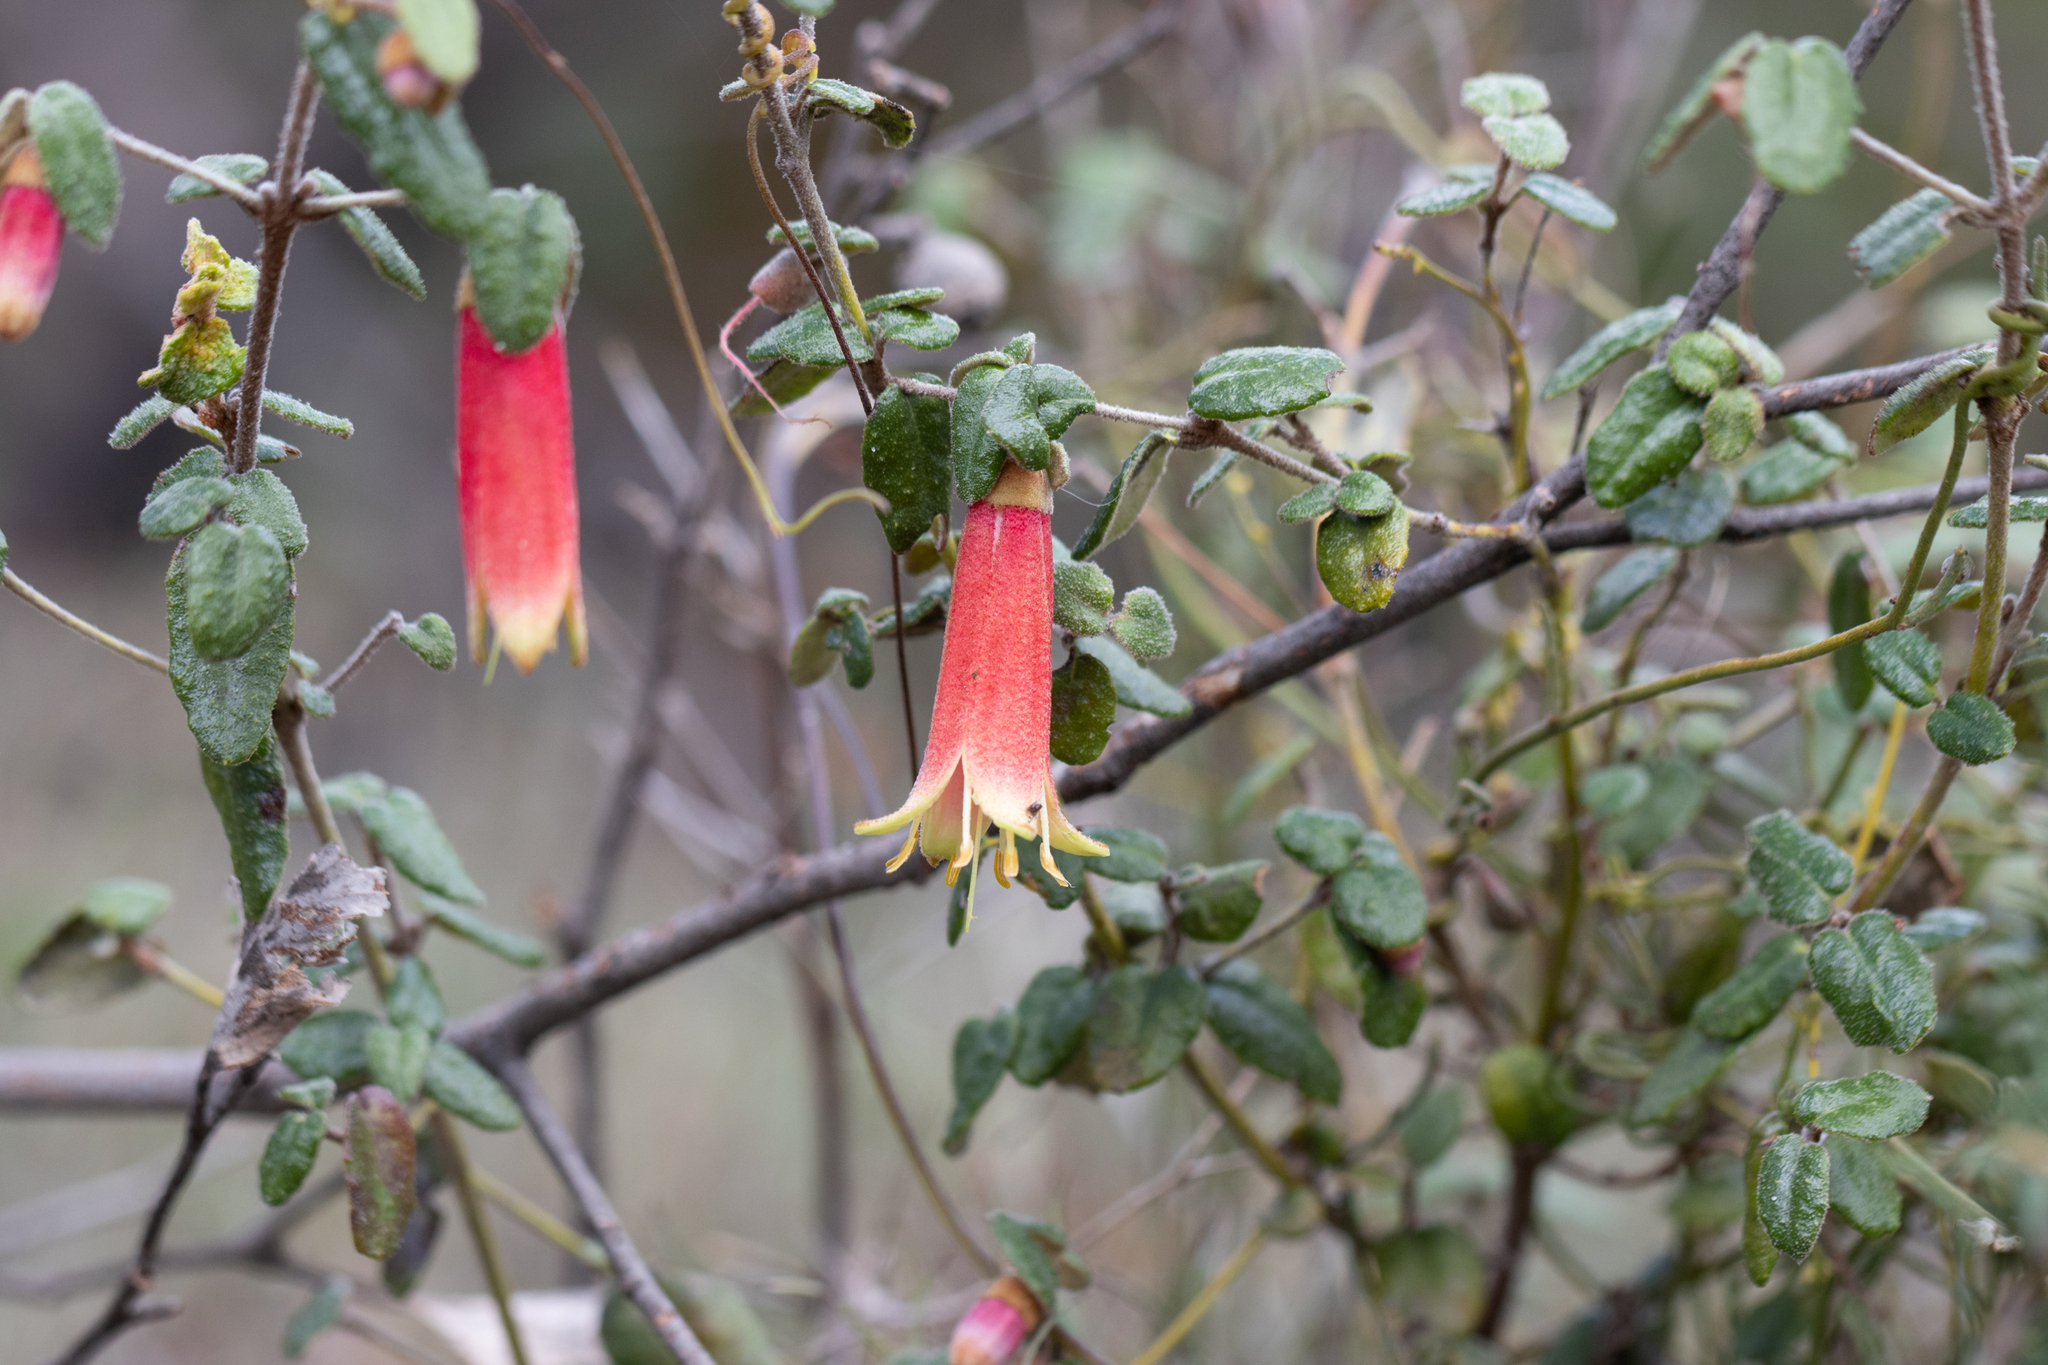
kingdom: Plantae
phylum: Tracheophyta
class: Magnoliopsida
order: Sapindales
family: Rutaceae
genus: Correa
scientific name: Correa reflexa
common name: Common correa
